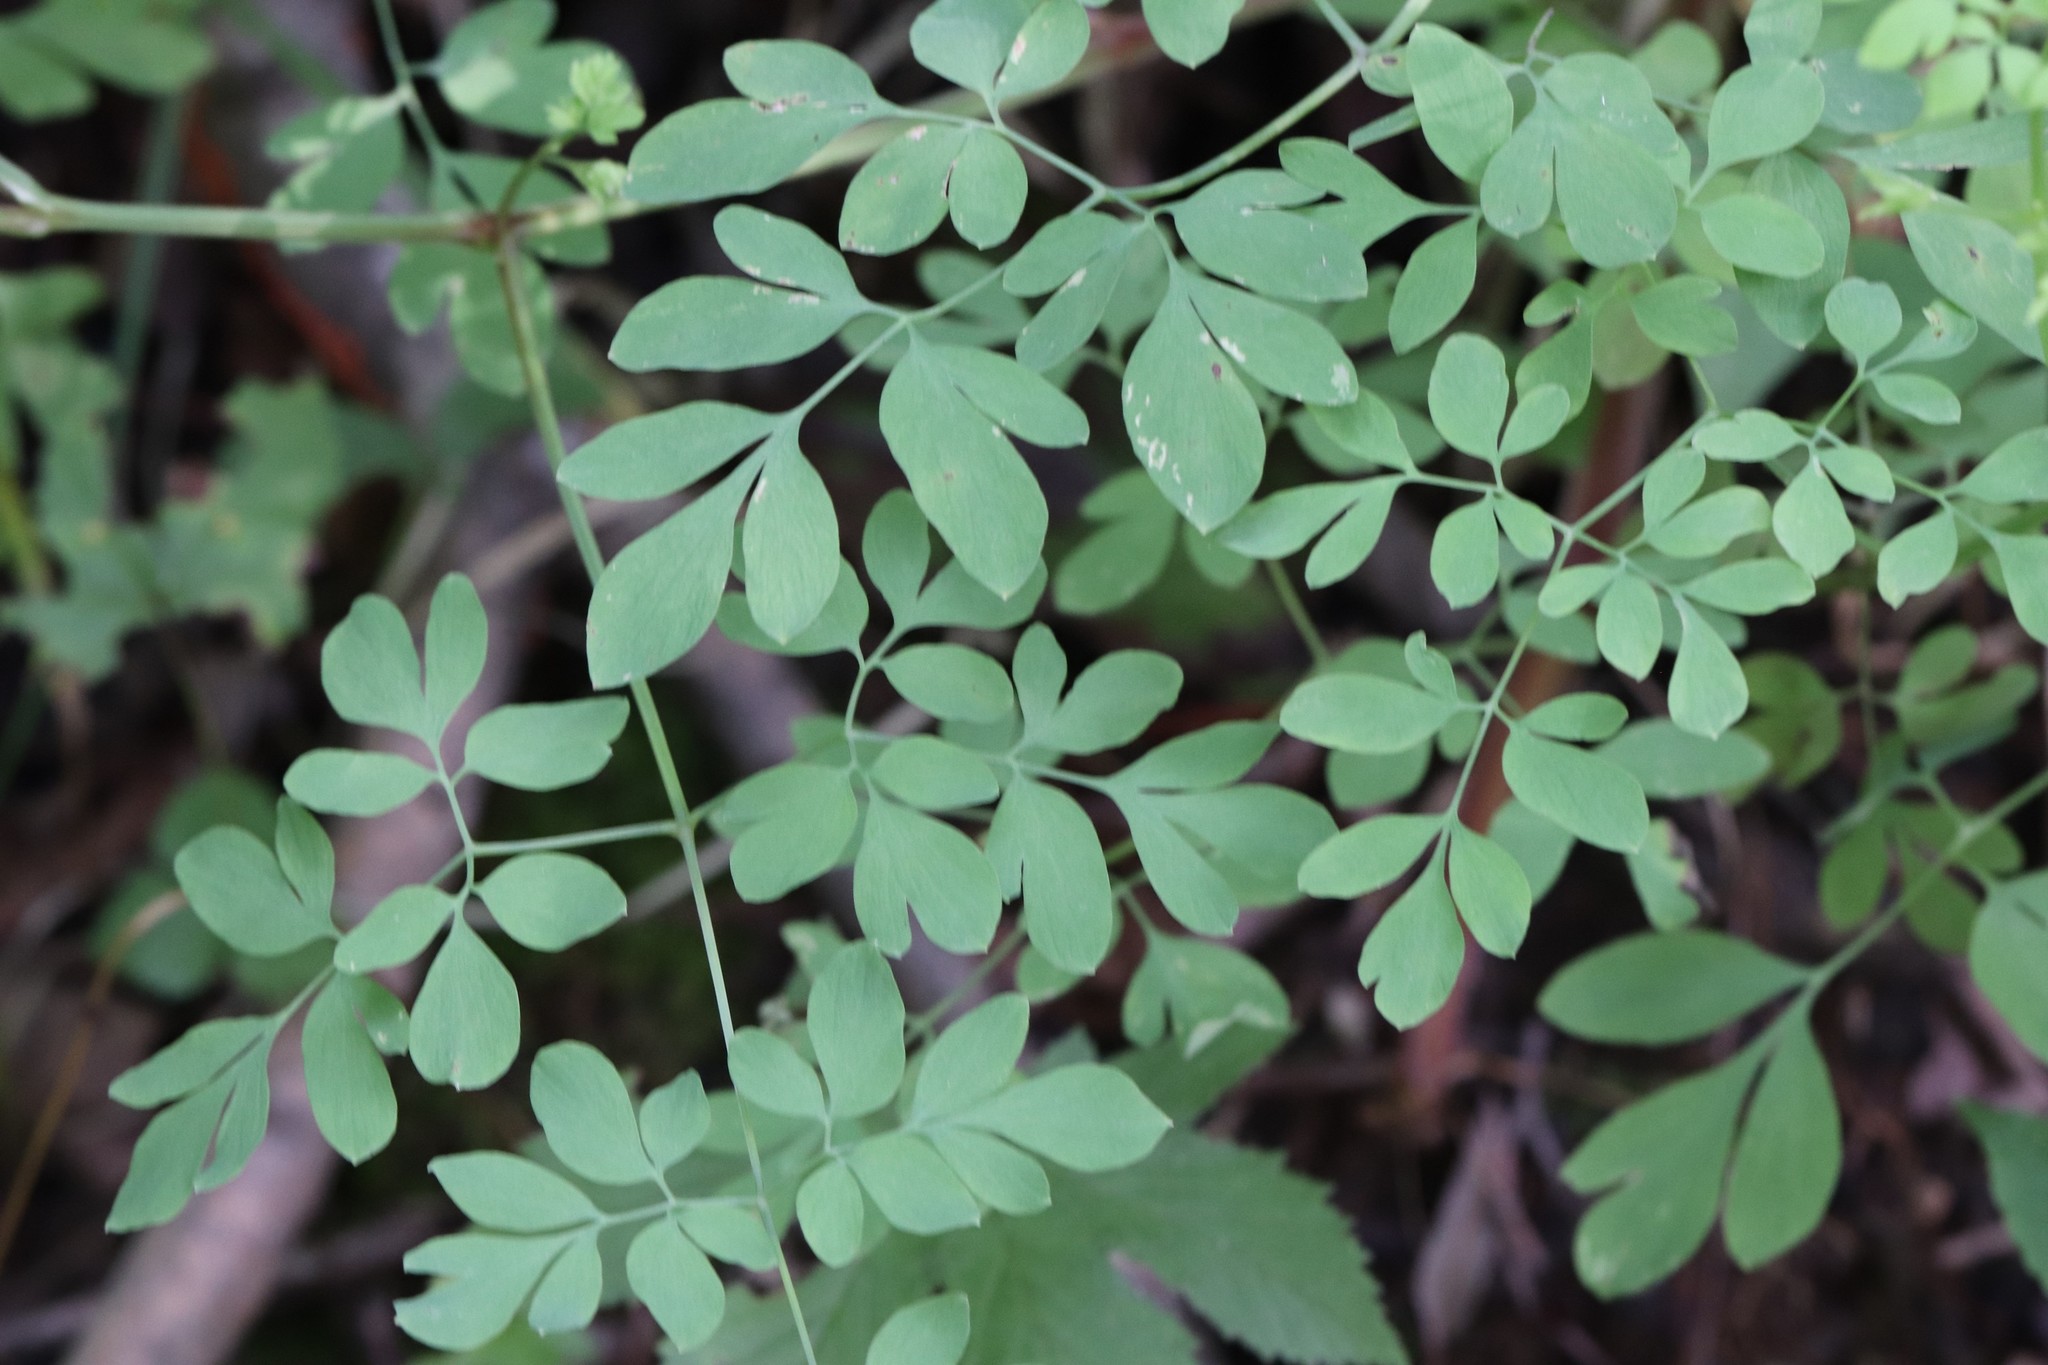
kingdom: Plantae
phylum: Tracheophyta
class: Magnoliopsida
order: Ranunculales
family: Papaveraceae
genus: Corydalis
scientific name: Corydalis ochotensis
